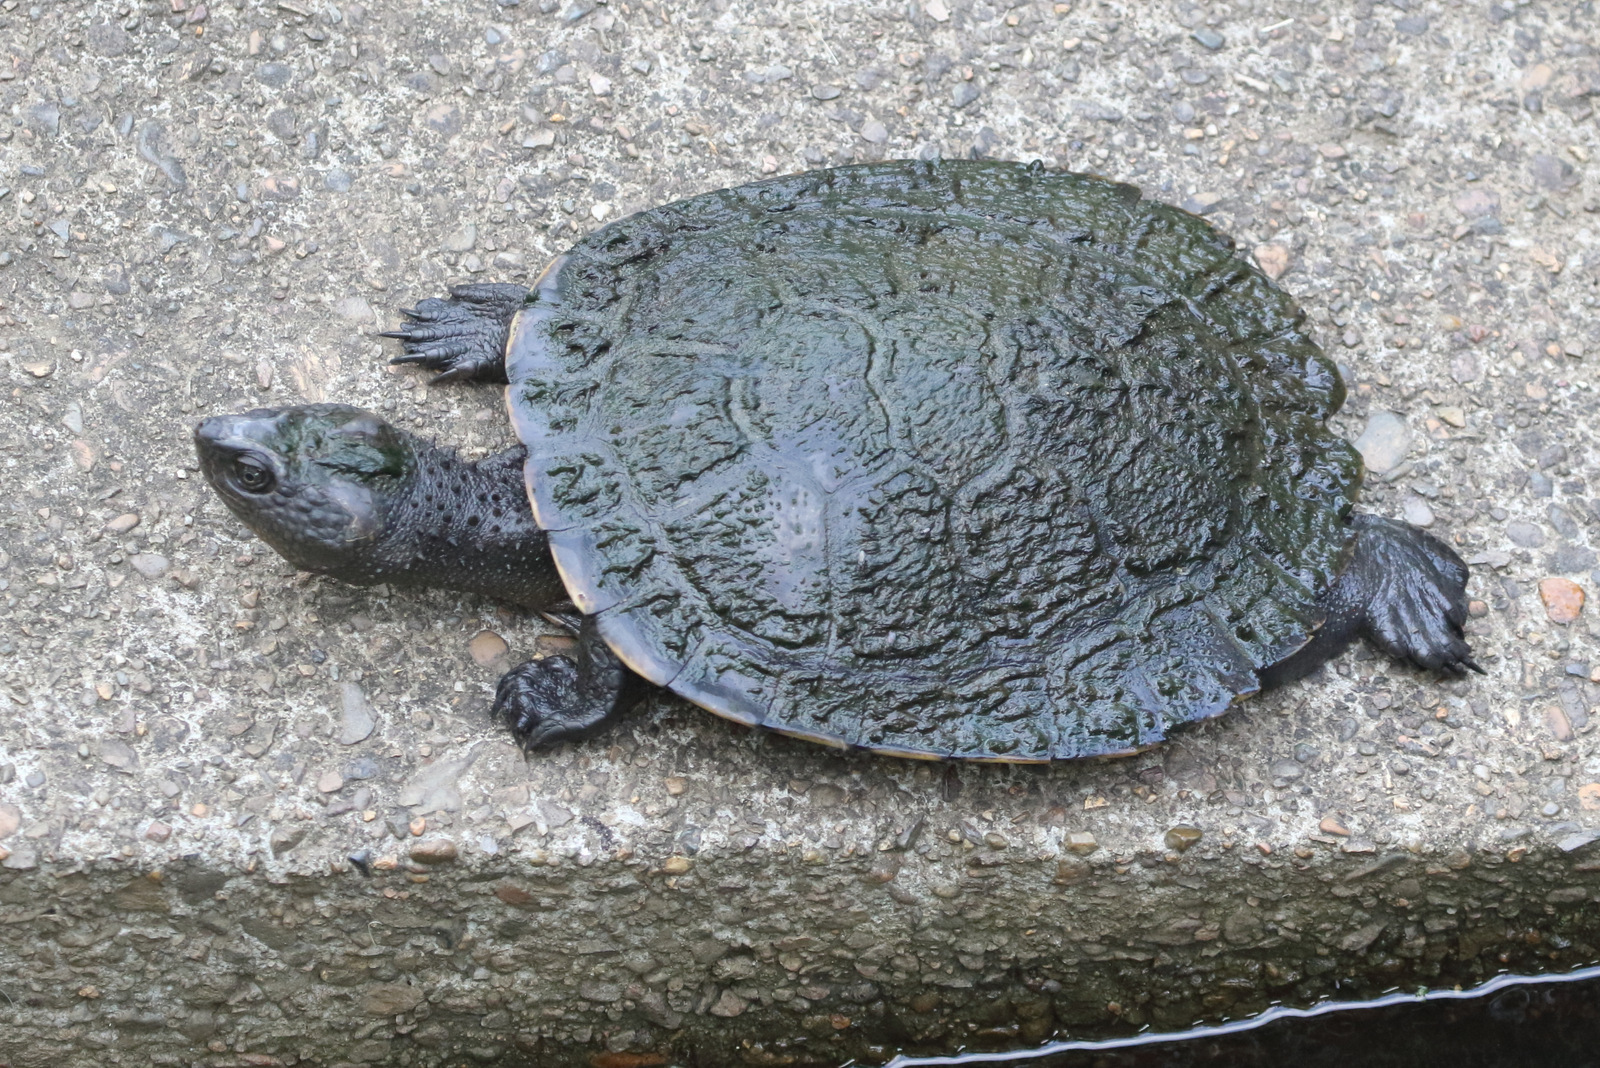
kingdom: Animalia
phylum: Chordata
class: Testudines
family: Chelidae
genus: Myuchelys
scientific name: Myuchelys latisternum
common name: Serrated snapping turtle
